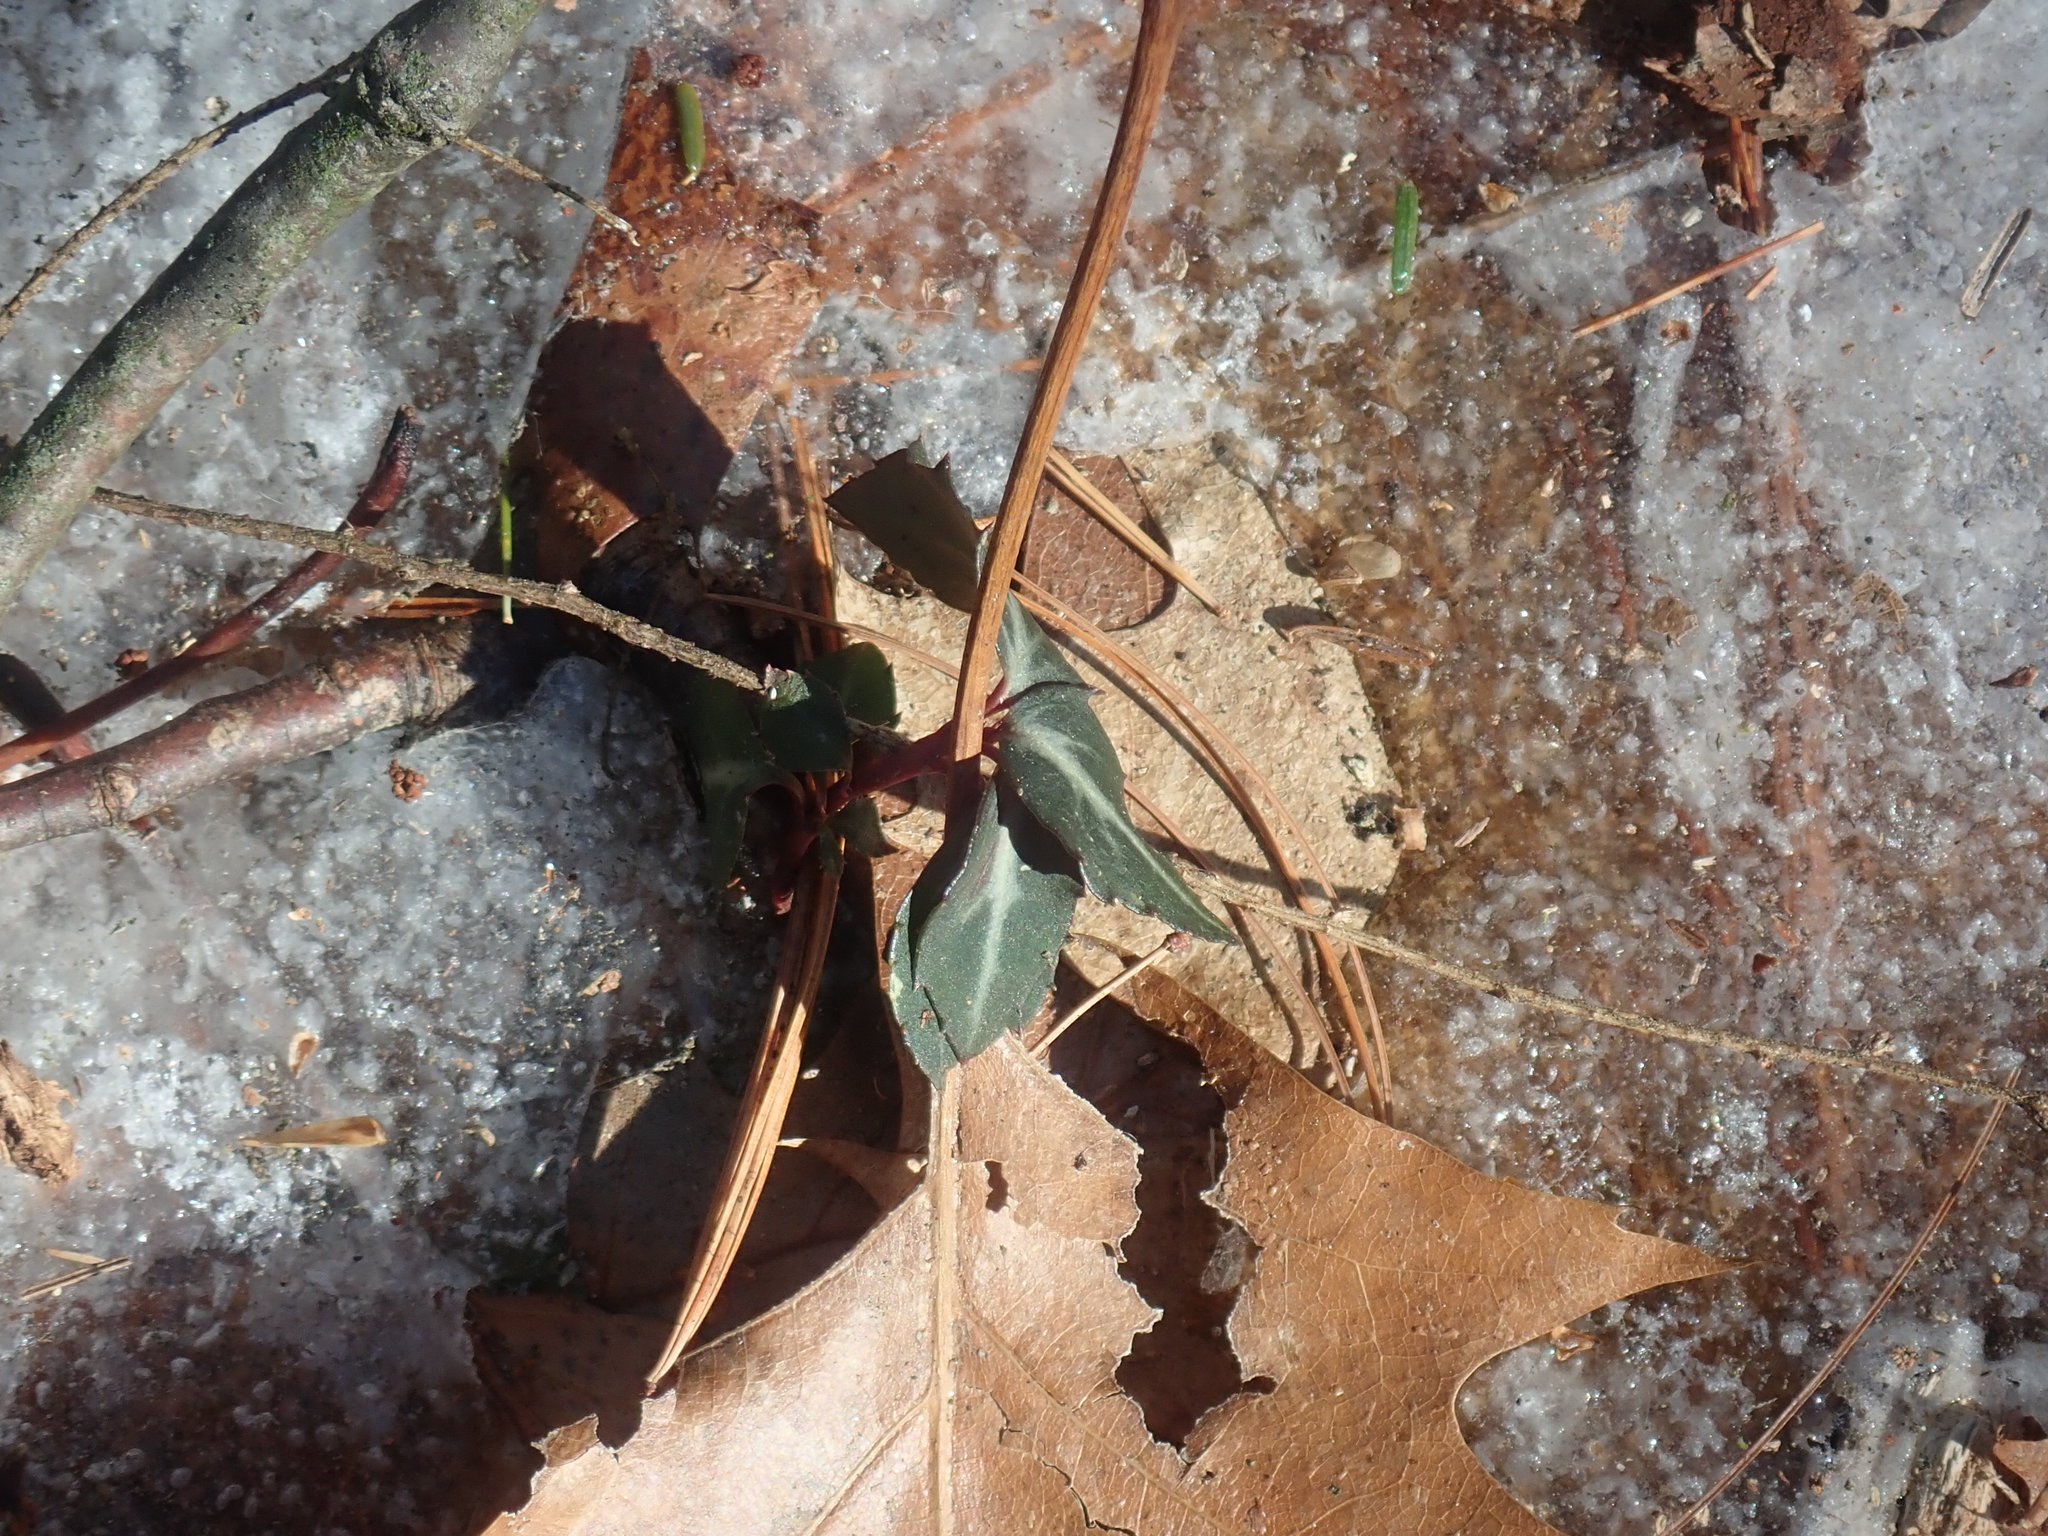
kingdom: Plantae
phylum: Tracheophyta
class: Magnoliopsida
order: Ericales
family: Ericaceae
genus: Chimaphila
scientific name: Chimaphila maculata
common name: Spotted pipsissewa
